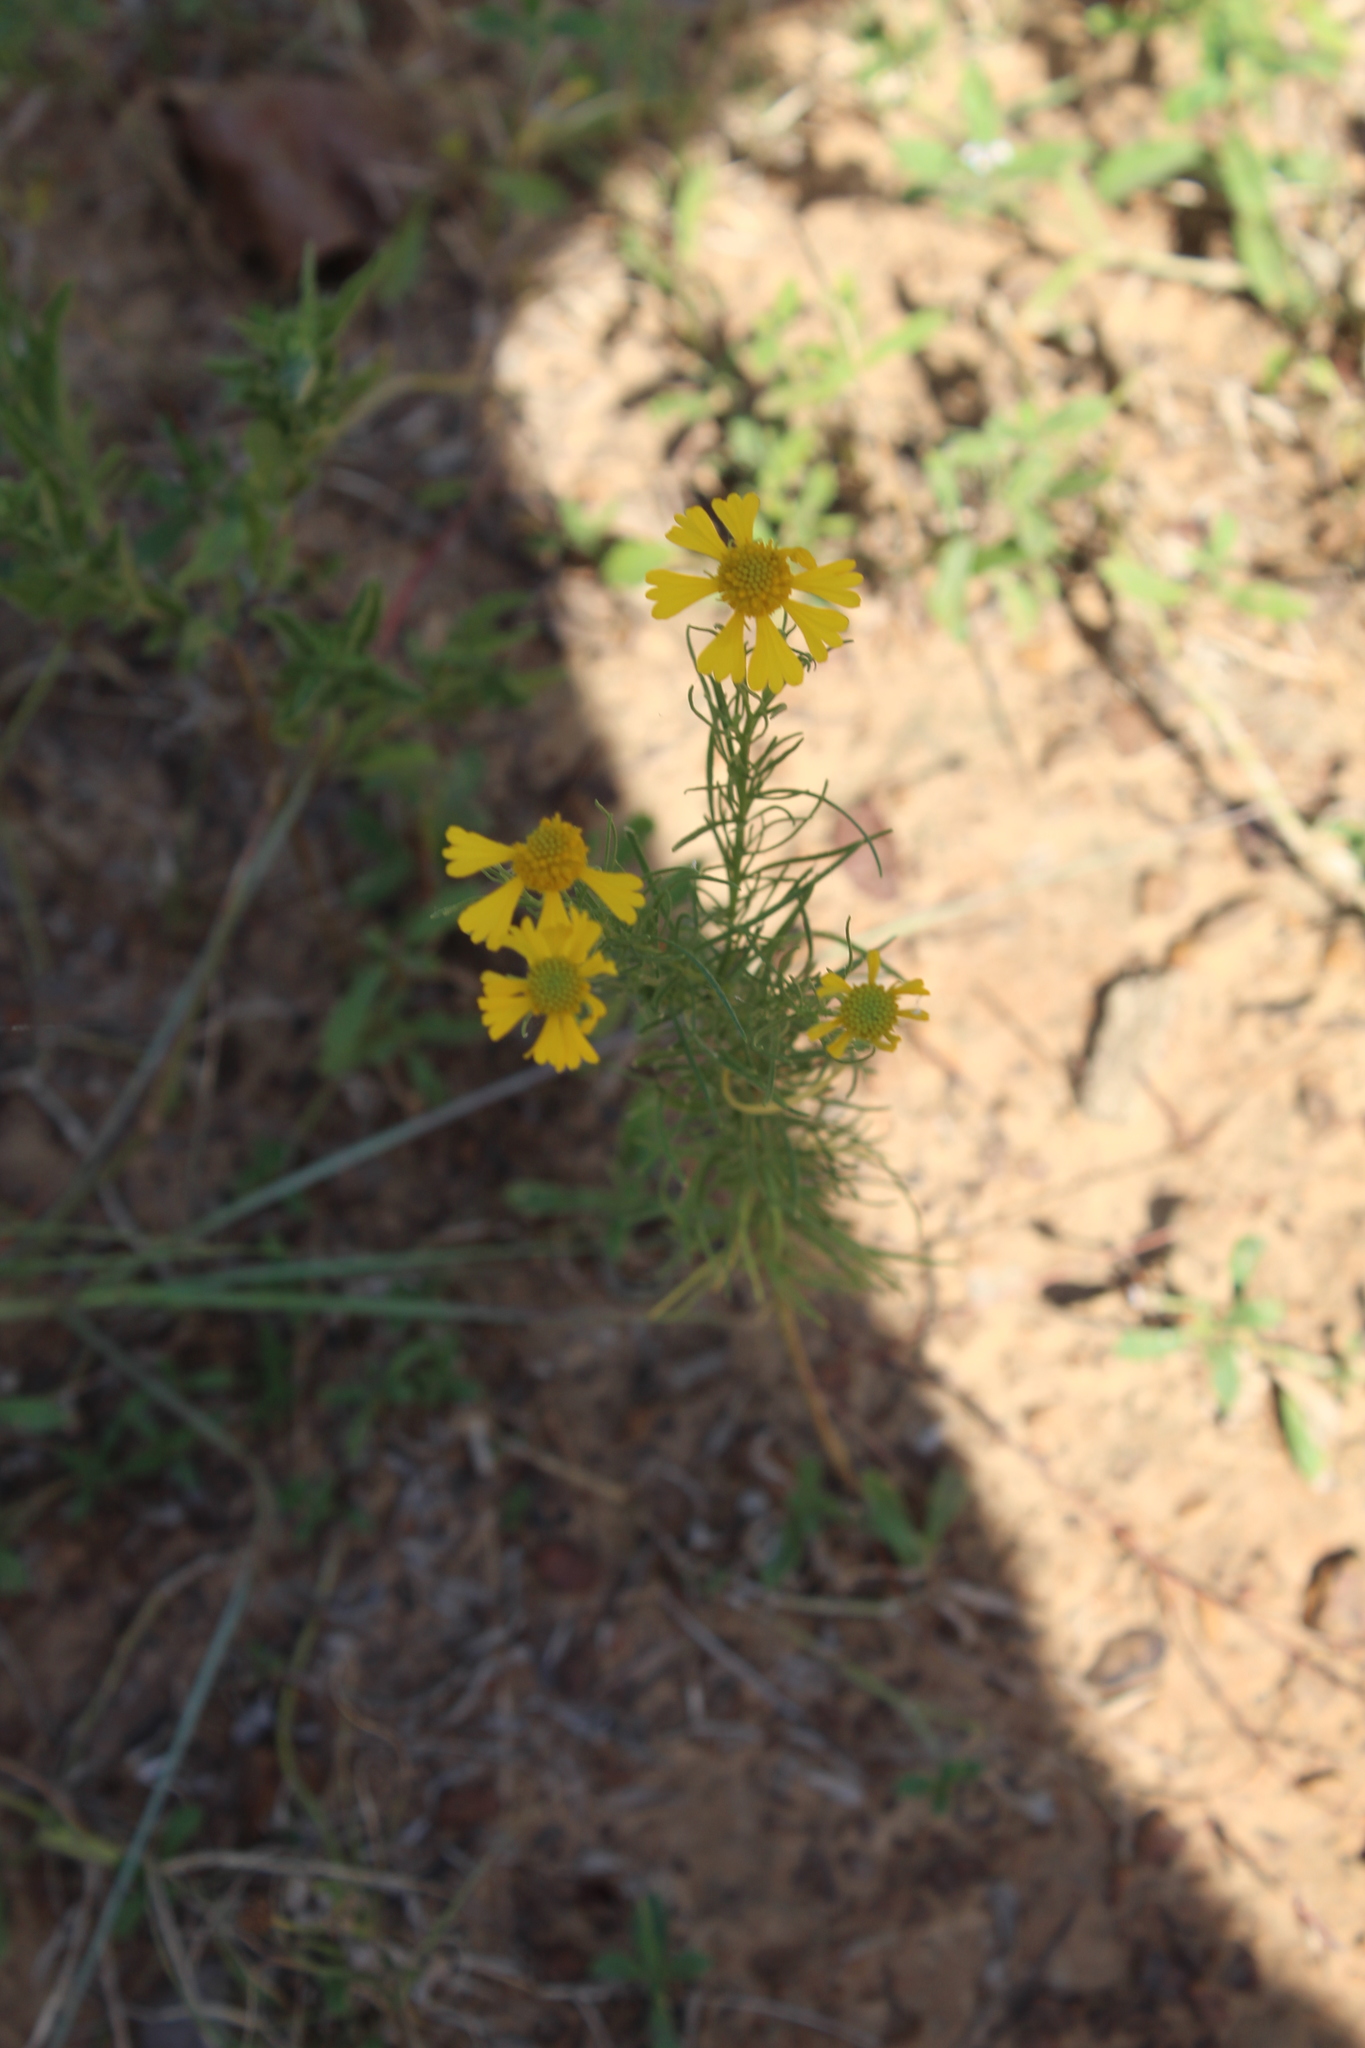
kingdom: Plantae
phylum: Tracheophyta
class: Magnoliopsida
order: Asterales
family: Asteraceae
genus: Helenium
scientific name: Helenium amarum
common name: Bitter sneezeweed
